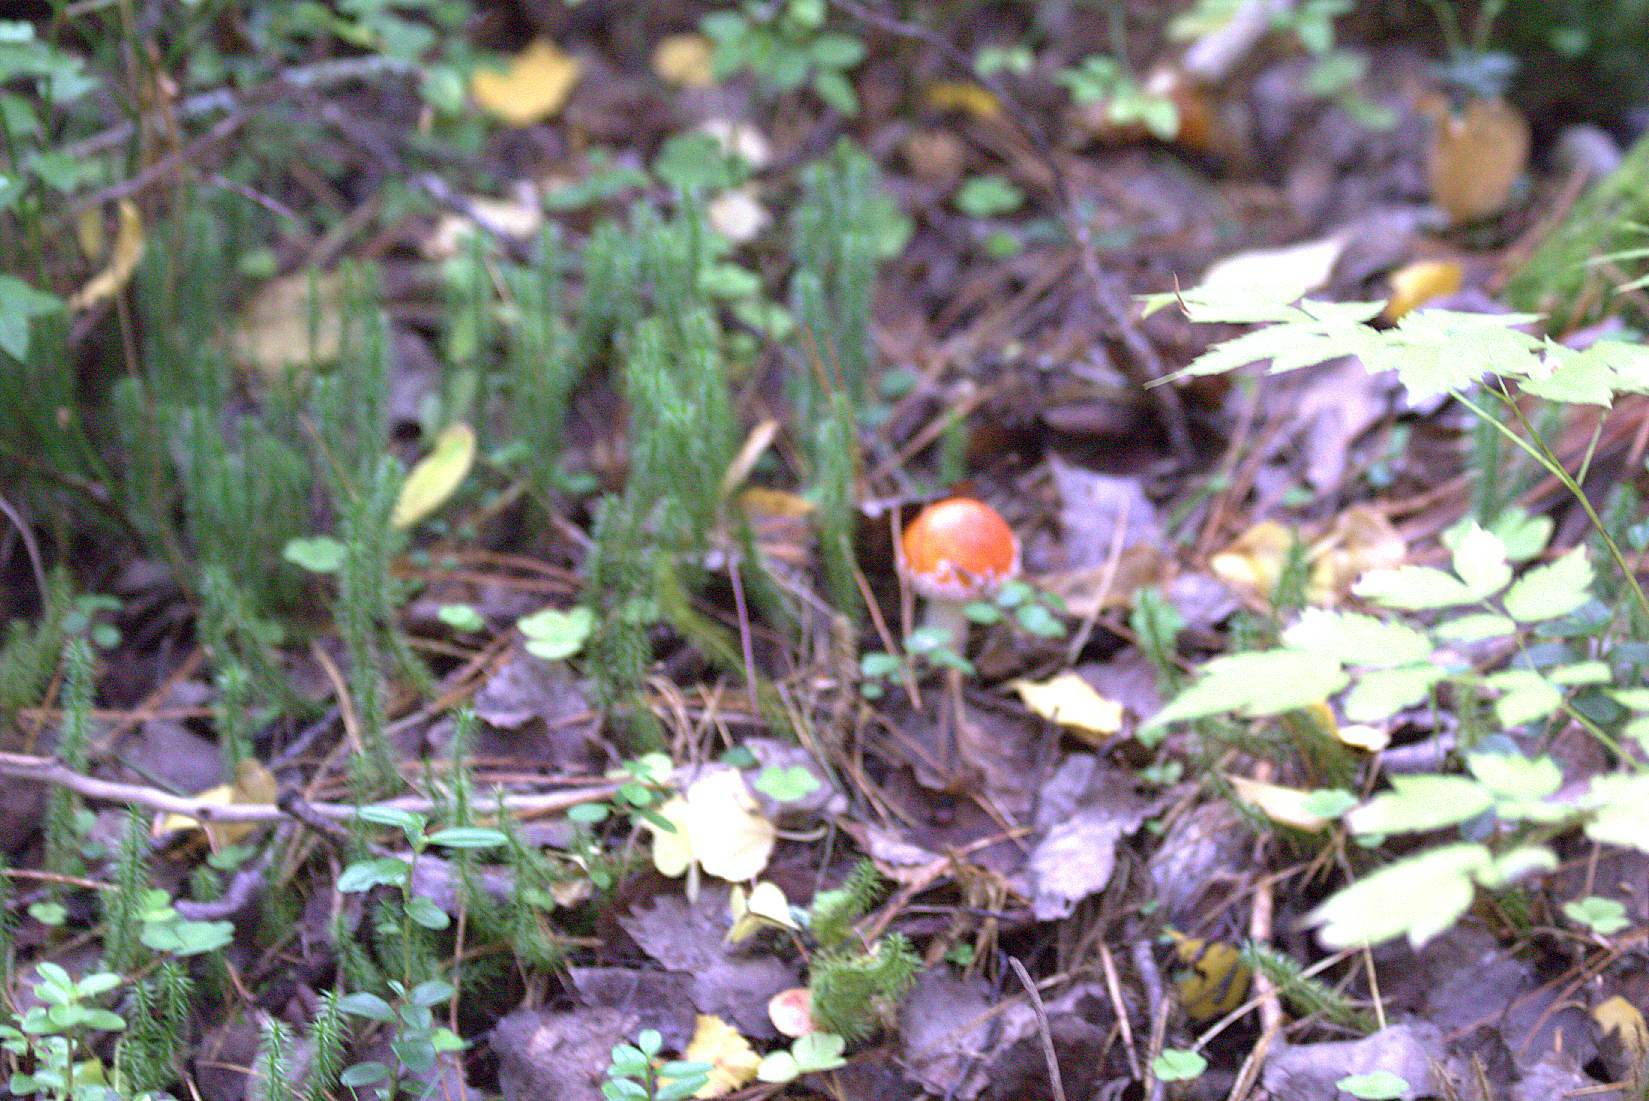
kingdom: Fungi
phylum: Basidiomycota
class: Agaricomycetes
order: Agaricales
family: Amanitaceae
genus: Amanita
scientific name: Amanita muscaria
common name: Fly agaric
